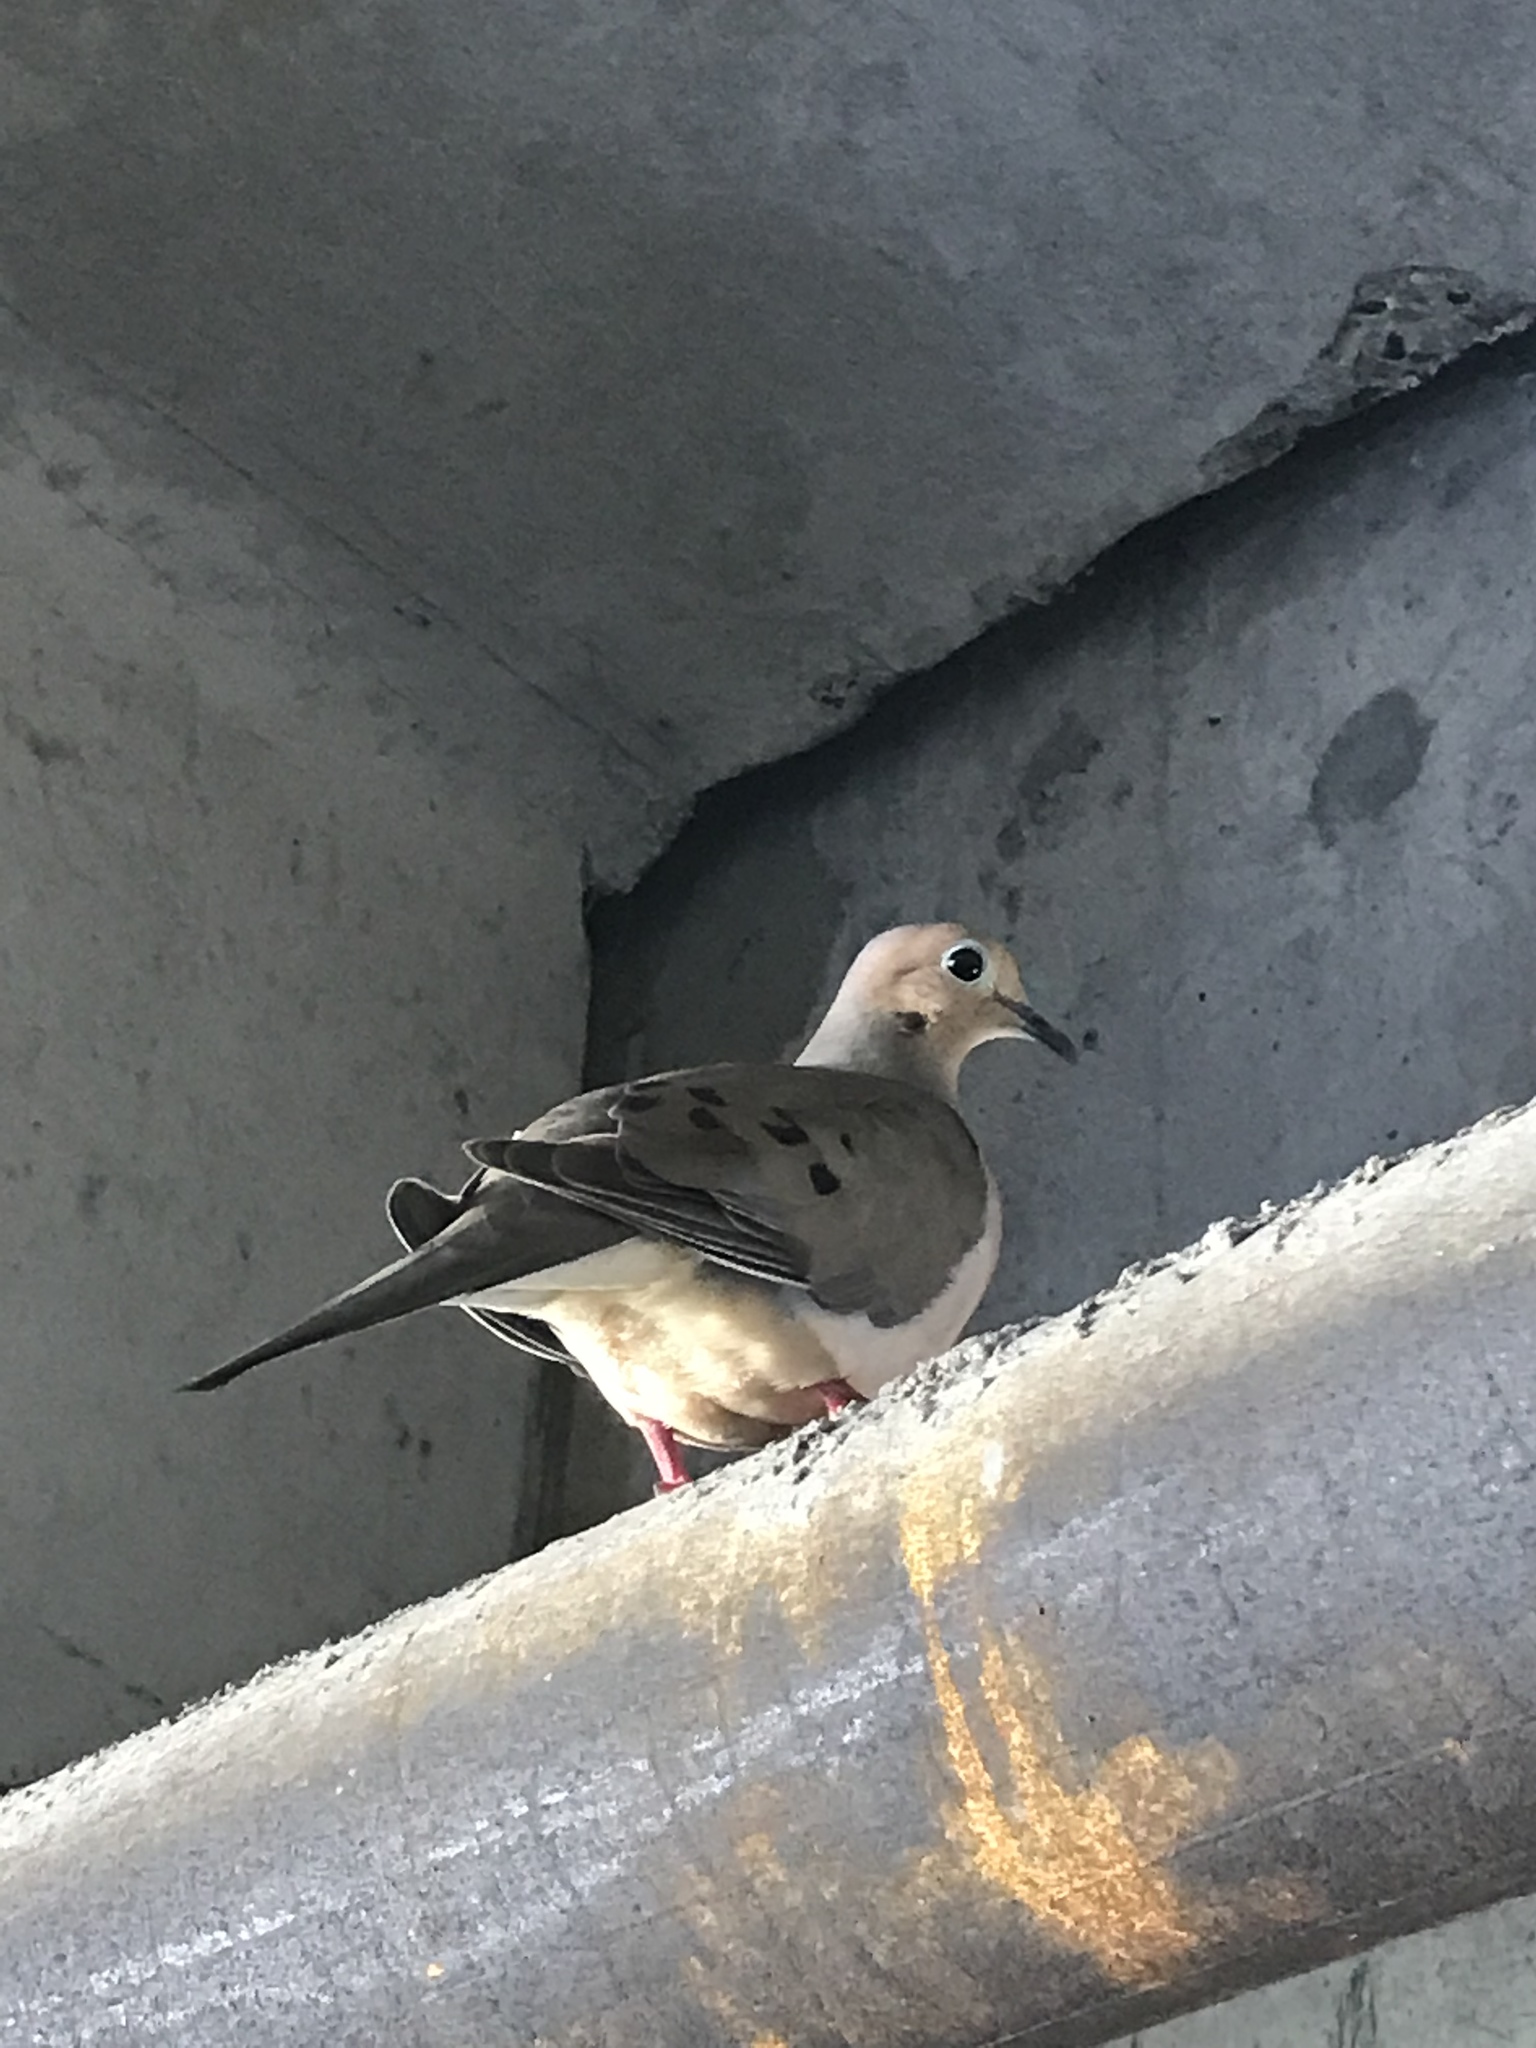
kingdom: Animalia
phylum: Chordata
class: Aves
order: Columbiformes
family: Columbidae
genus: Zenaida
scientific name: Zenaida macroura
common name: Mourning dove
